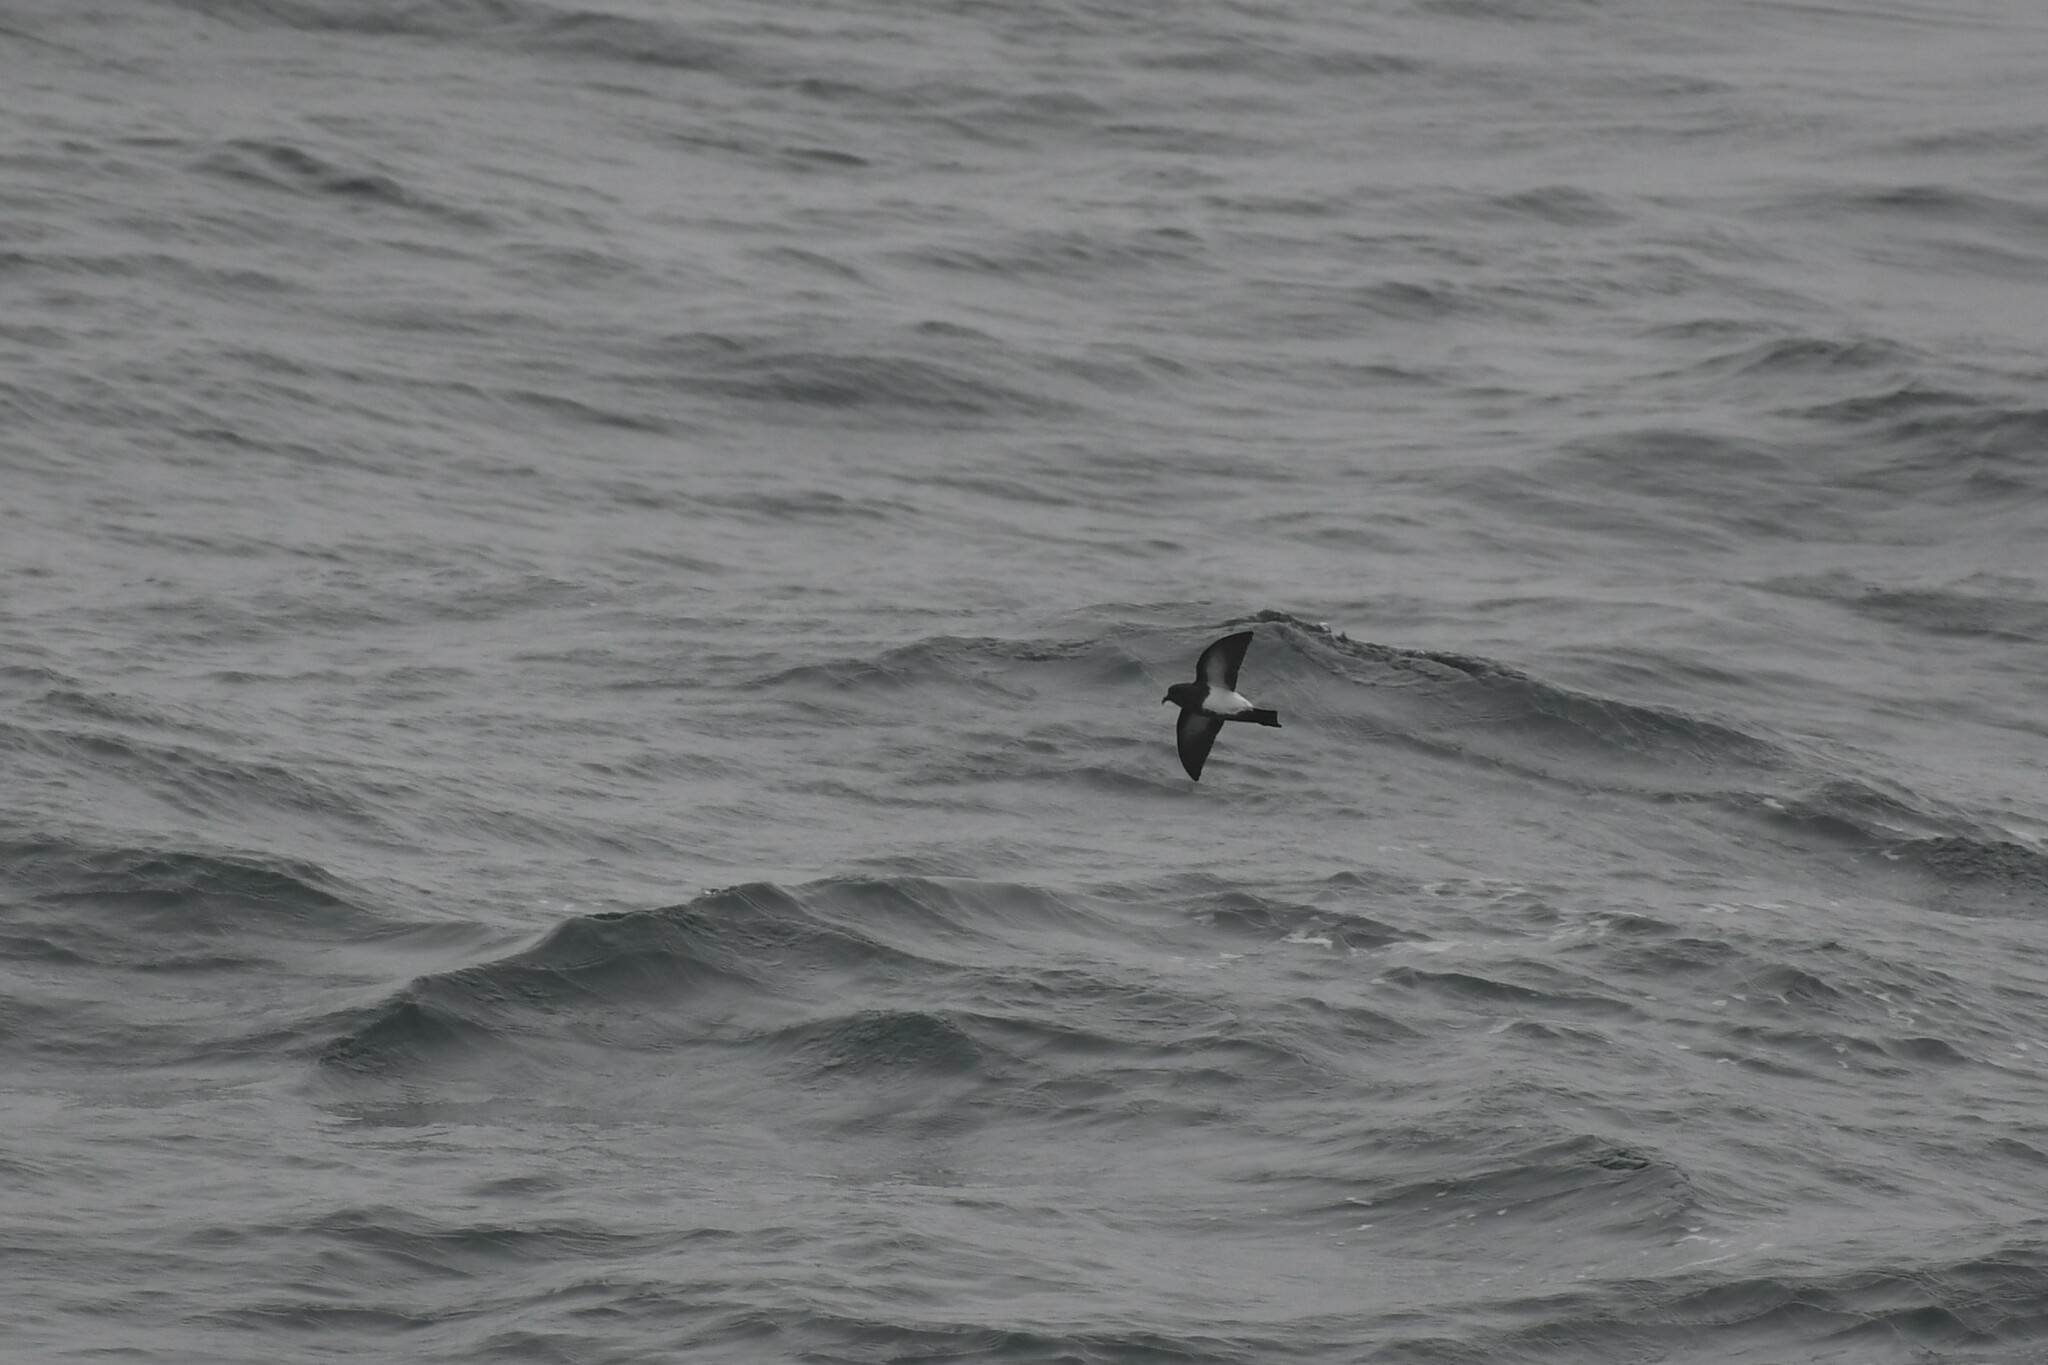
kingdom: Animalia
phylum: Chordata
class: Aves
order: Procellariiformes
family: Hydrobatidae
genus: Fregetta
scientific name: Fregetta tropica
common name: Black-bellied storm-petrel
